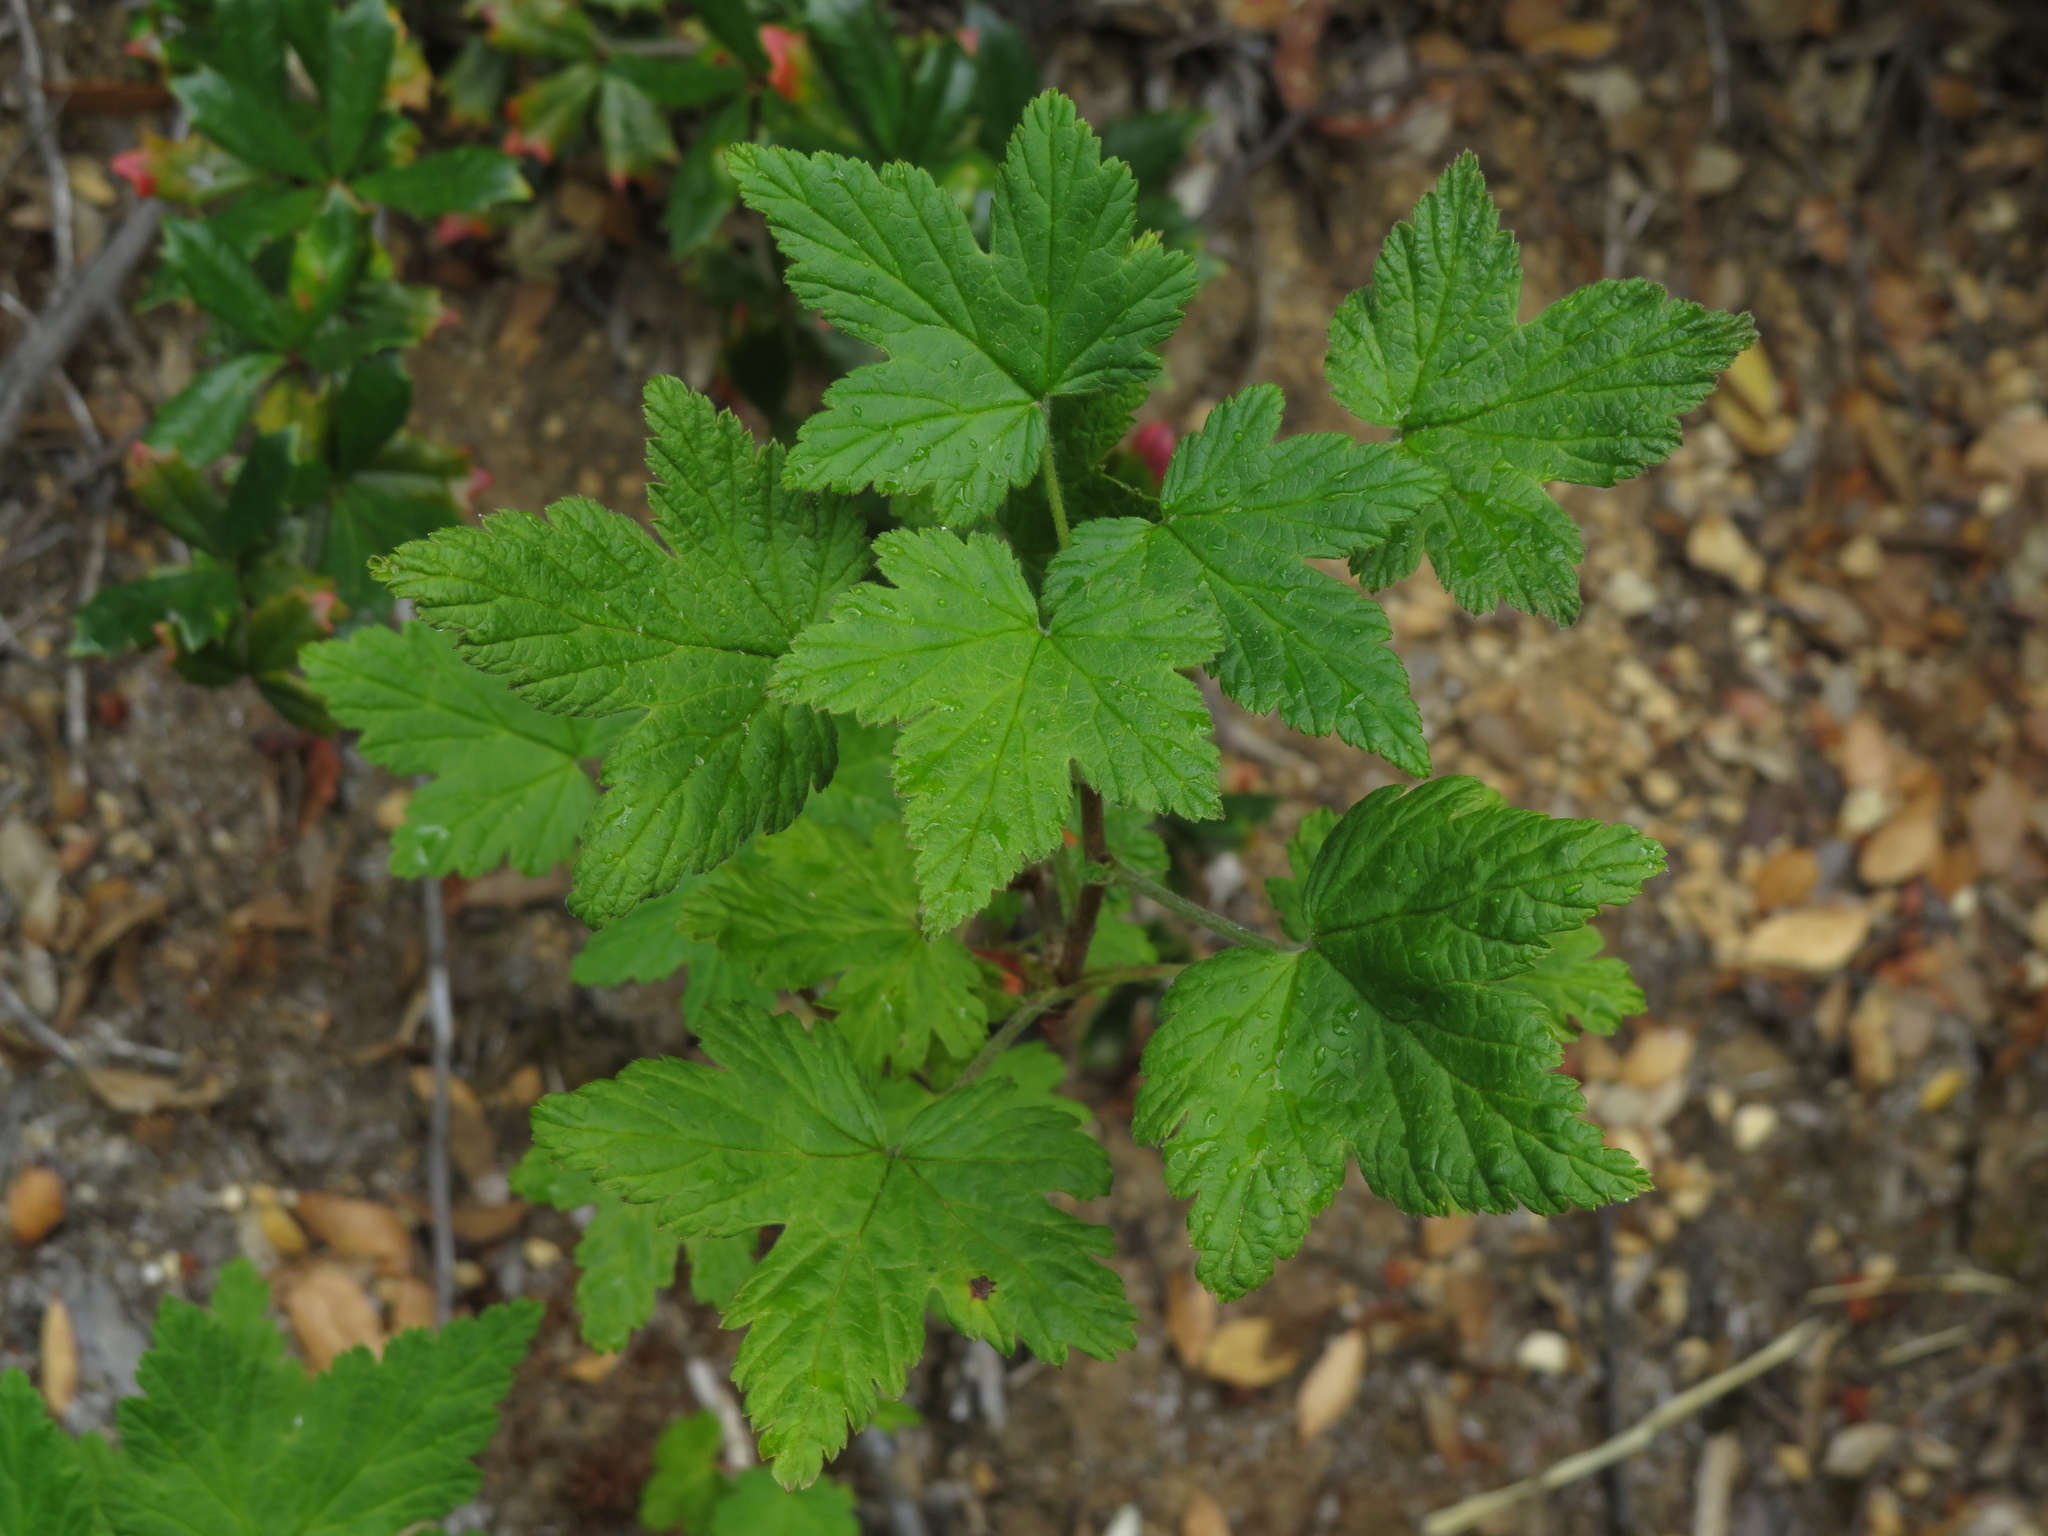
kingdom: Plantae
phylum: Tracheophyta
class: Magnoliopsida
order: Saxifragales
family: Grossulariaceae
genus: Ribes
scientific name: Ribes magellanicum
